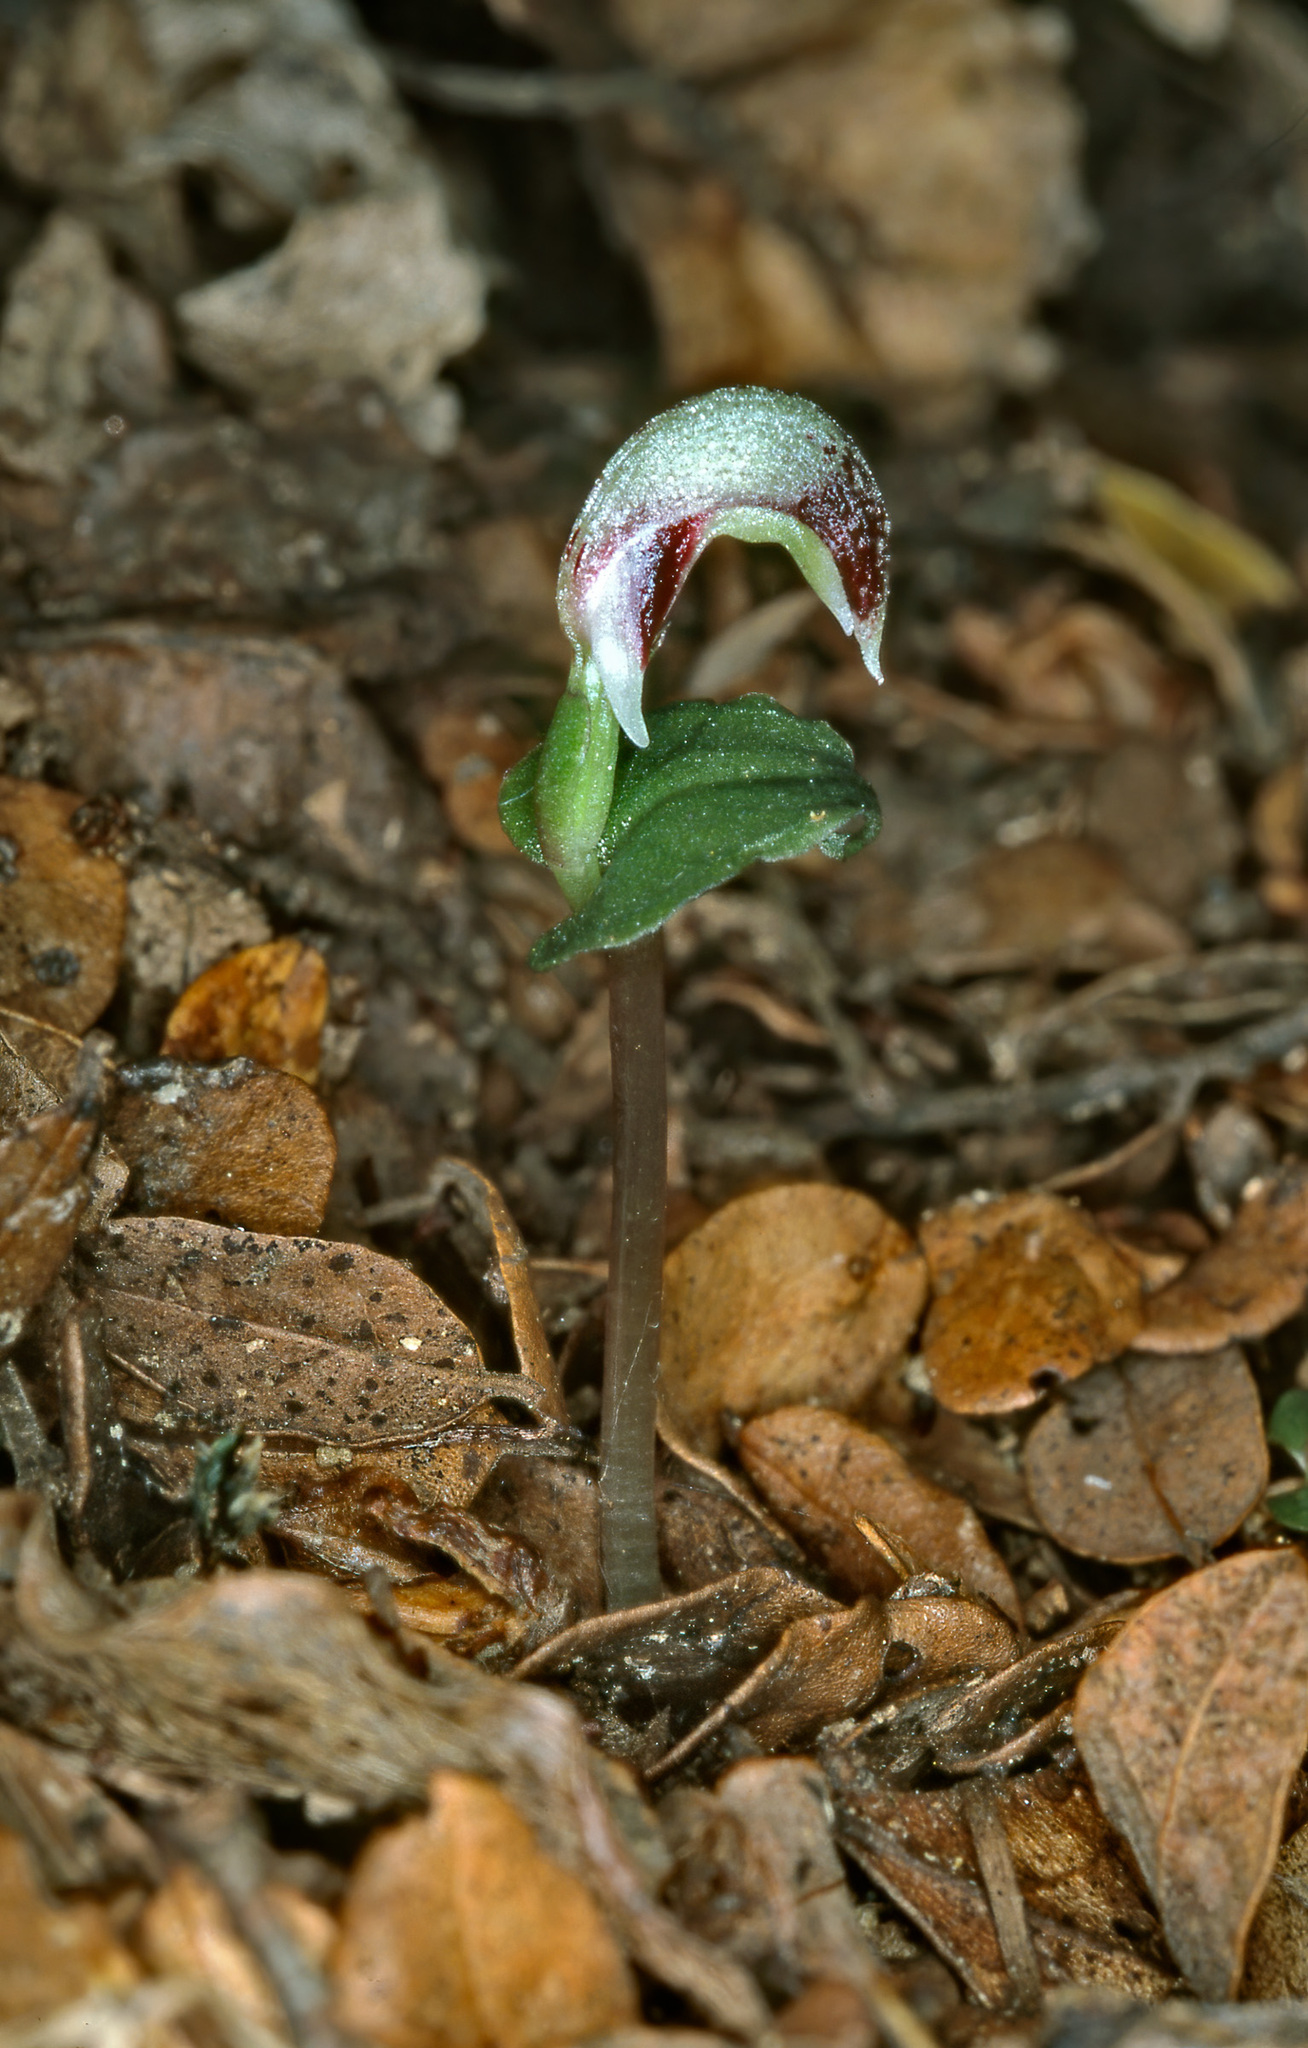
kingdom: Plantae
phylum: Tracheophyta
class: Liliopsida
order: Asparagales
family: Orchidaceae
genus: Corybas
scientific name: Corybas cheesemanii
